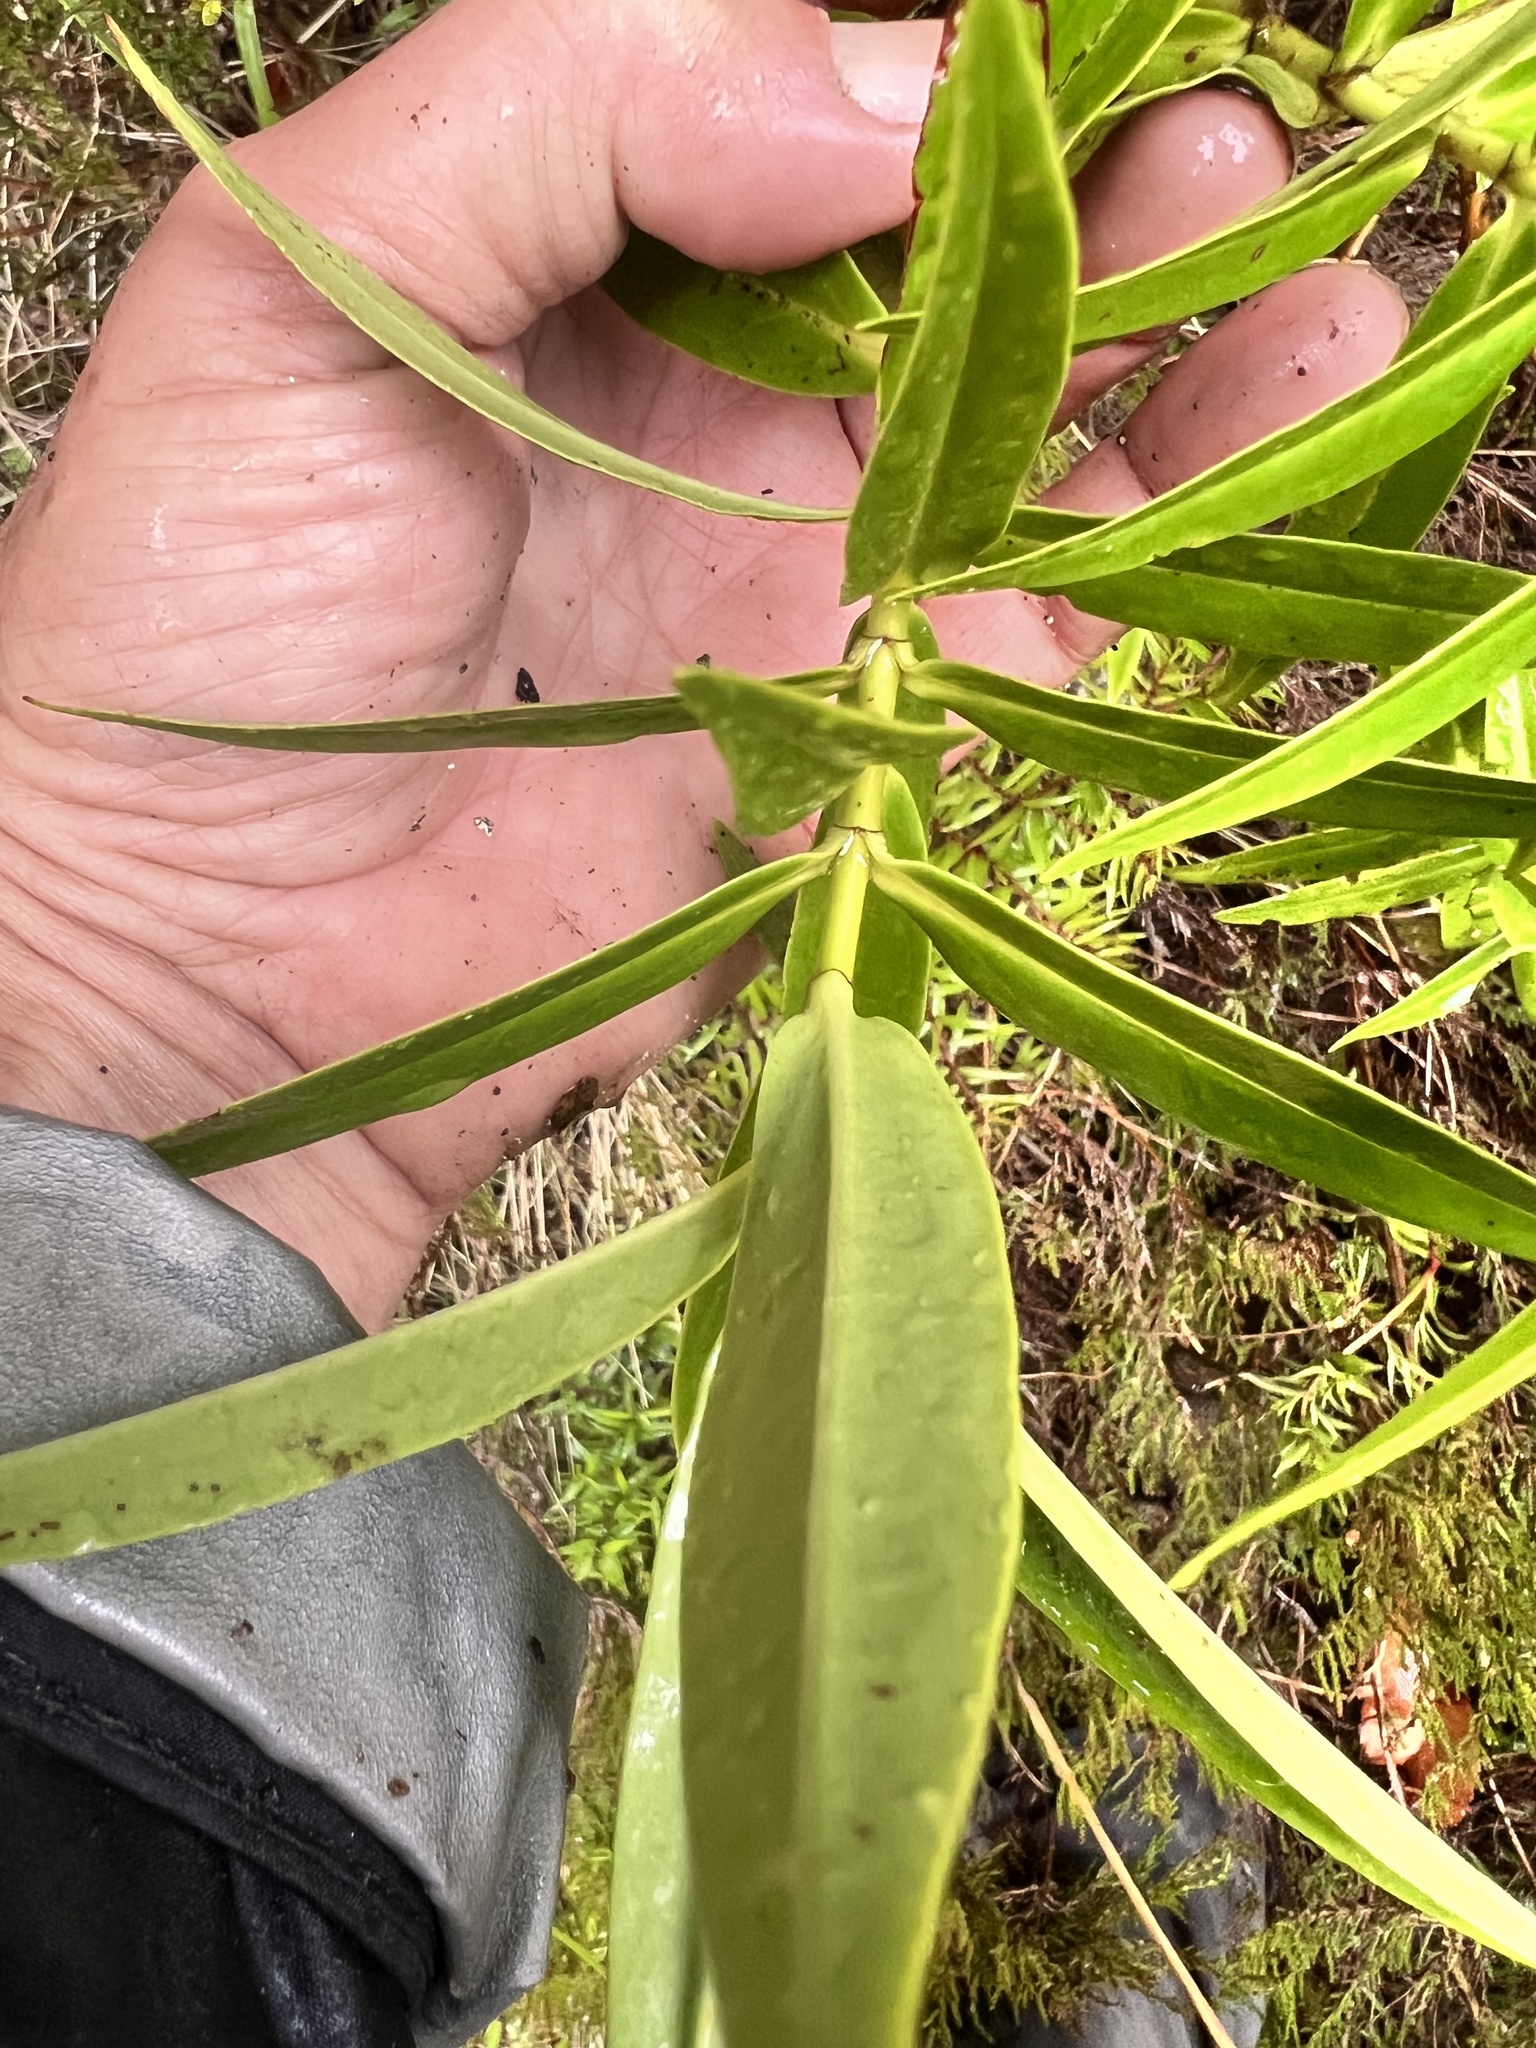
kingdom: Plantae
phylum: Tracheophyta
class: Magnoliopsida
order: Lamiales
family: Plantaginaceae
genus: Veronica
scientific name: Veronica stricta
